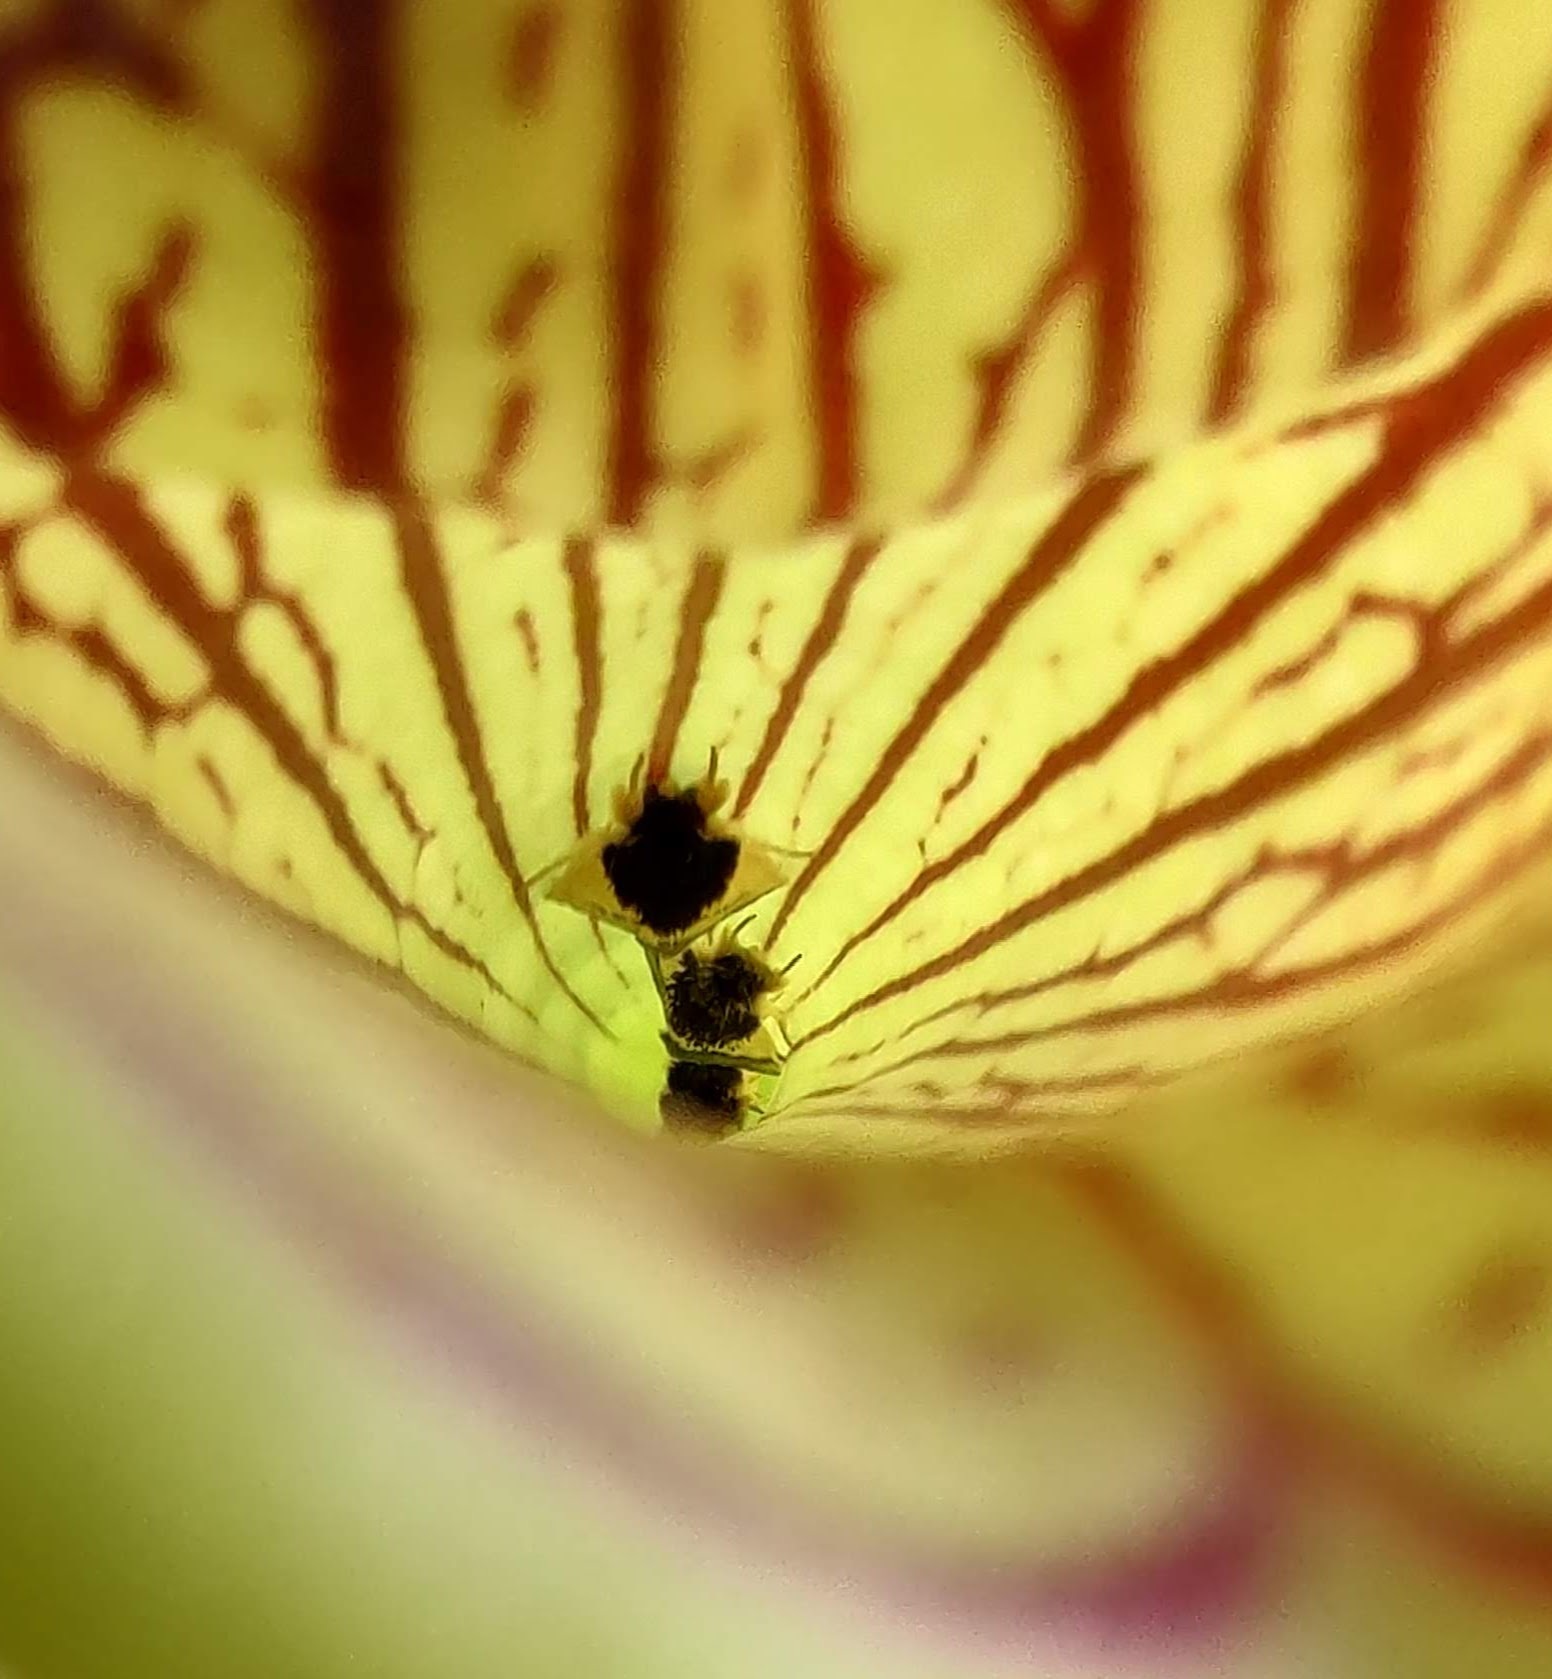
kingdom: Animalia
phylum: Arthropoda
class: Insecta
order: Lepidoptera
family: Noctuidae
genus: Exyra
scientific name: Exyra semicrocea
